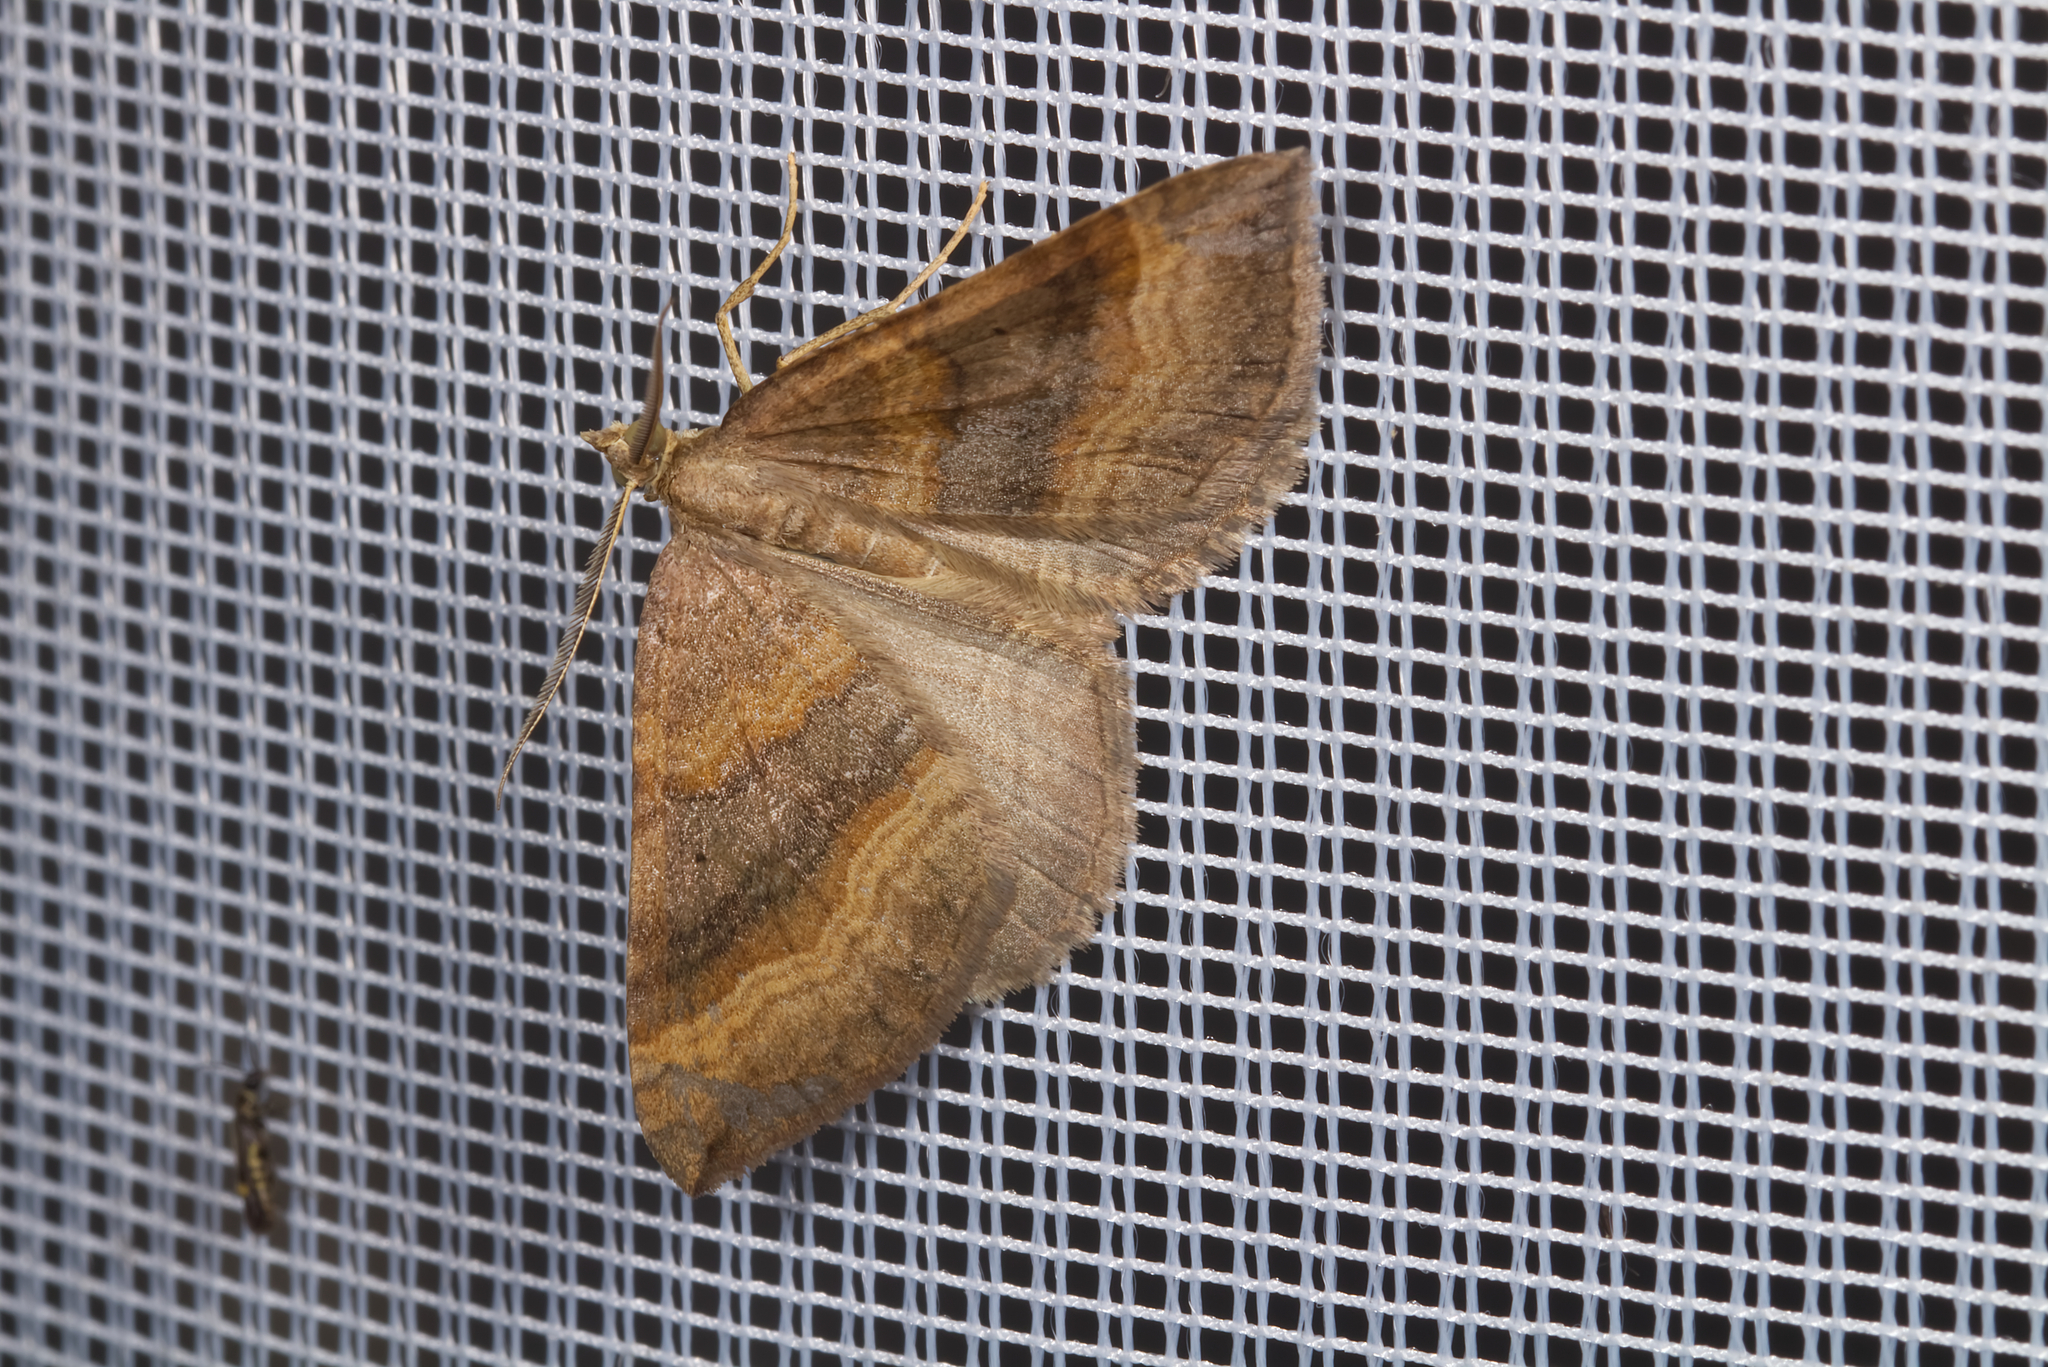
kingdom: Animalia
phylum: Arthropoda
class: Insecta
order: Lepidoptera
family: Geometridae
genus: Scotopteryx
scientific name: Scotopteryx chenopodiata
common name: Shaded broad-bar
